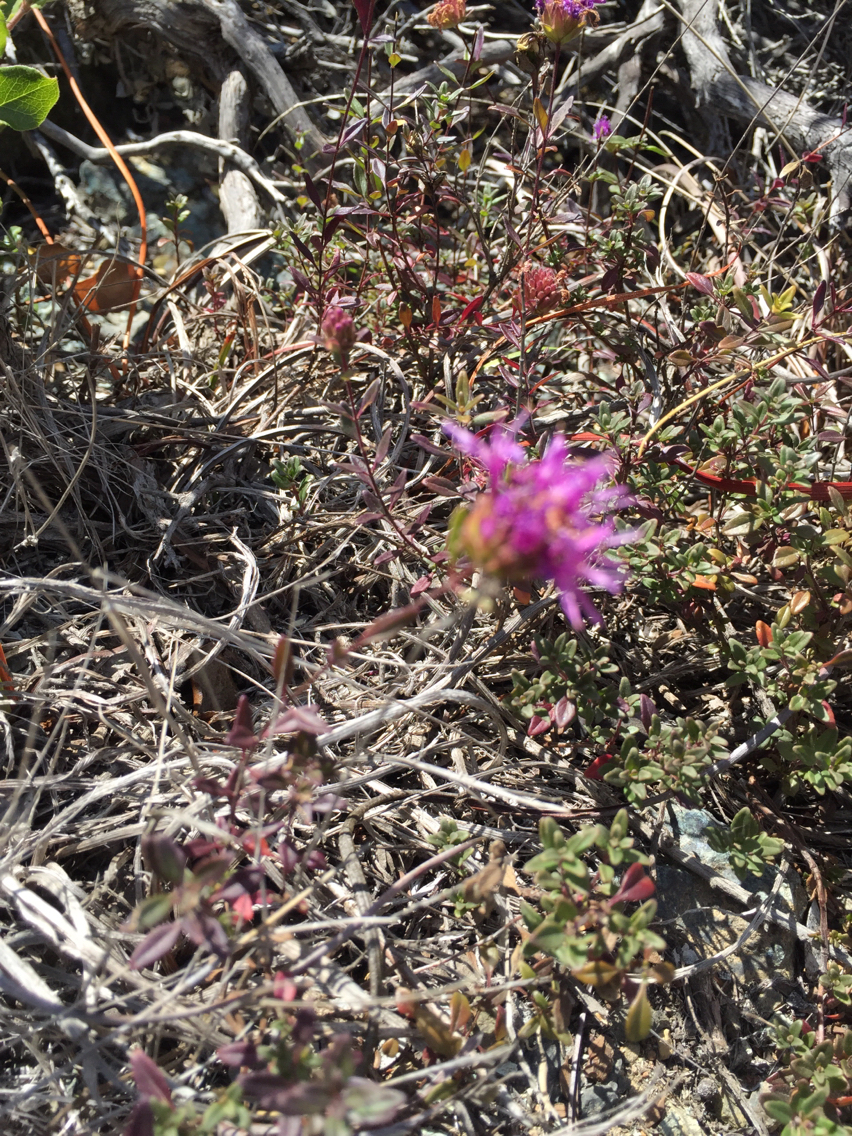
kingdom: Plantae
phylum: Tracheophyta
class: Magnoliopsida
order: Lamiales
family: Lamiaceae
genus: Monardella
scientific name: Monardella purpurea
